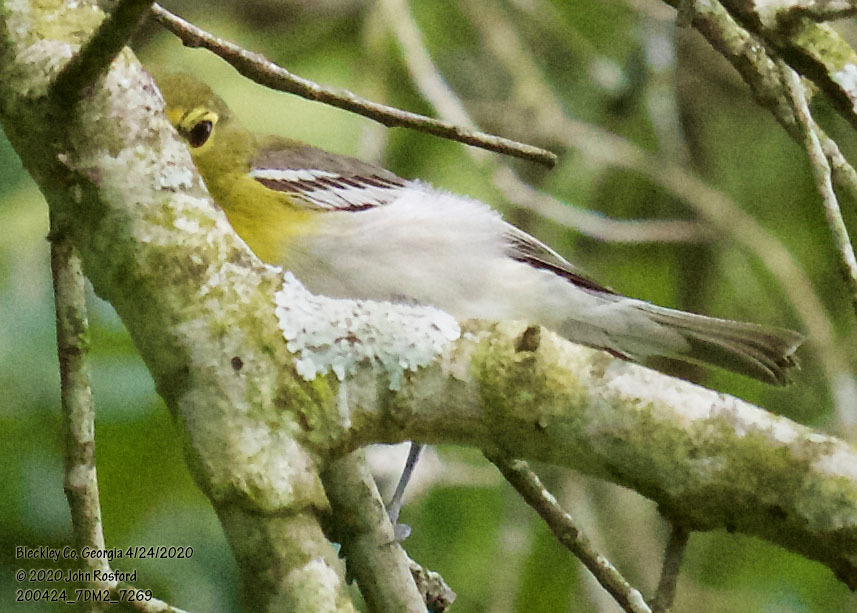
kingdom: Animalia
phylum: Chordata
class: Aves
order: Passeriformes
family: Vireonidae
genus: Vireo
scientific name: Vireo flavifrons
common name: Yellow-throated vireo
